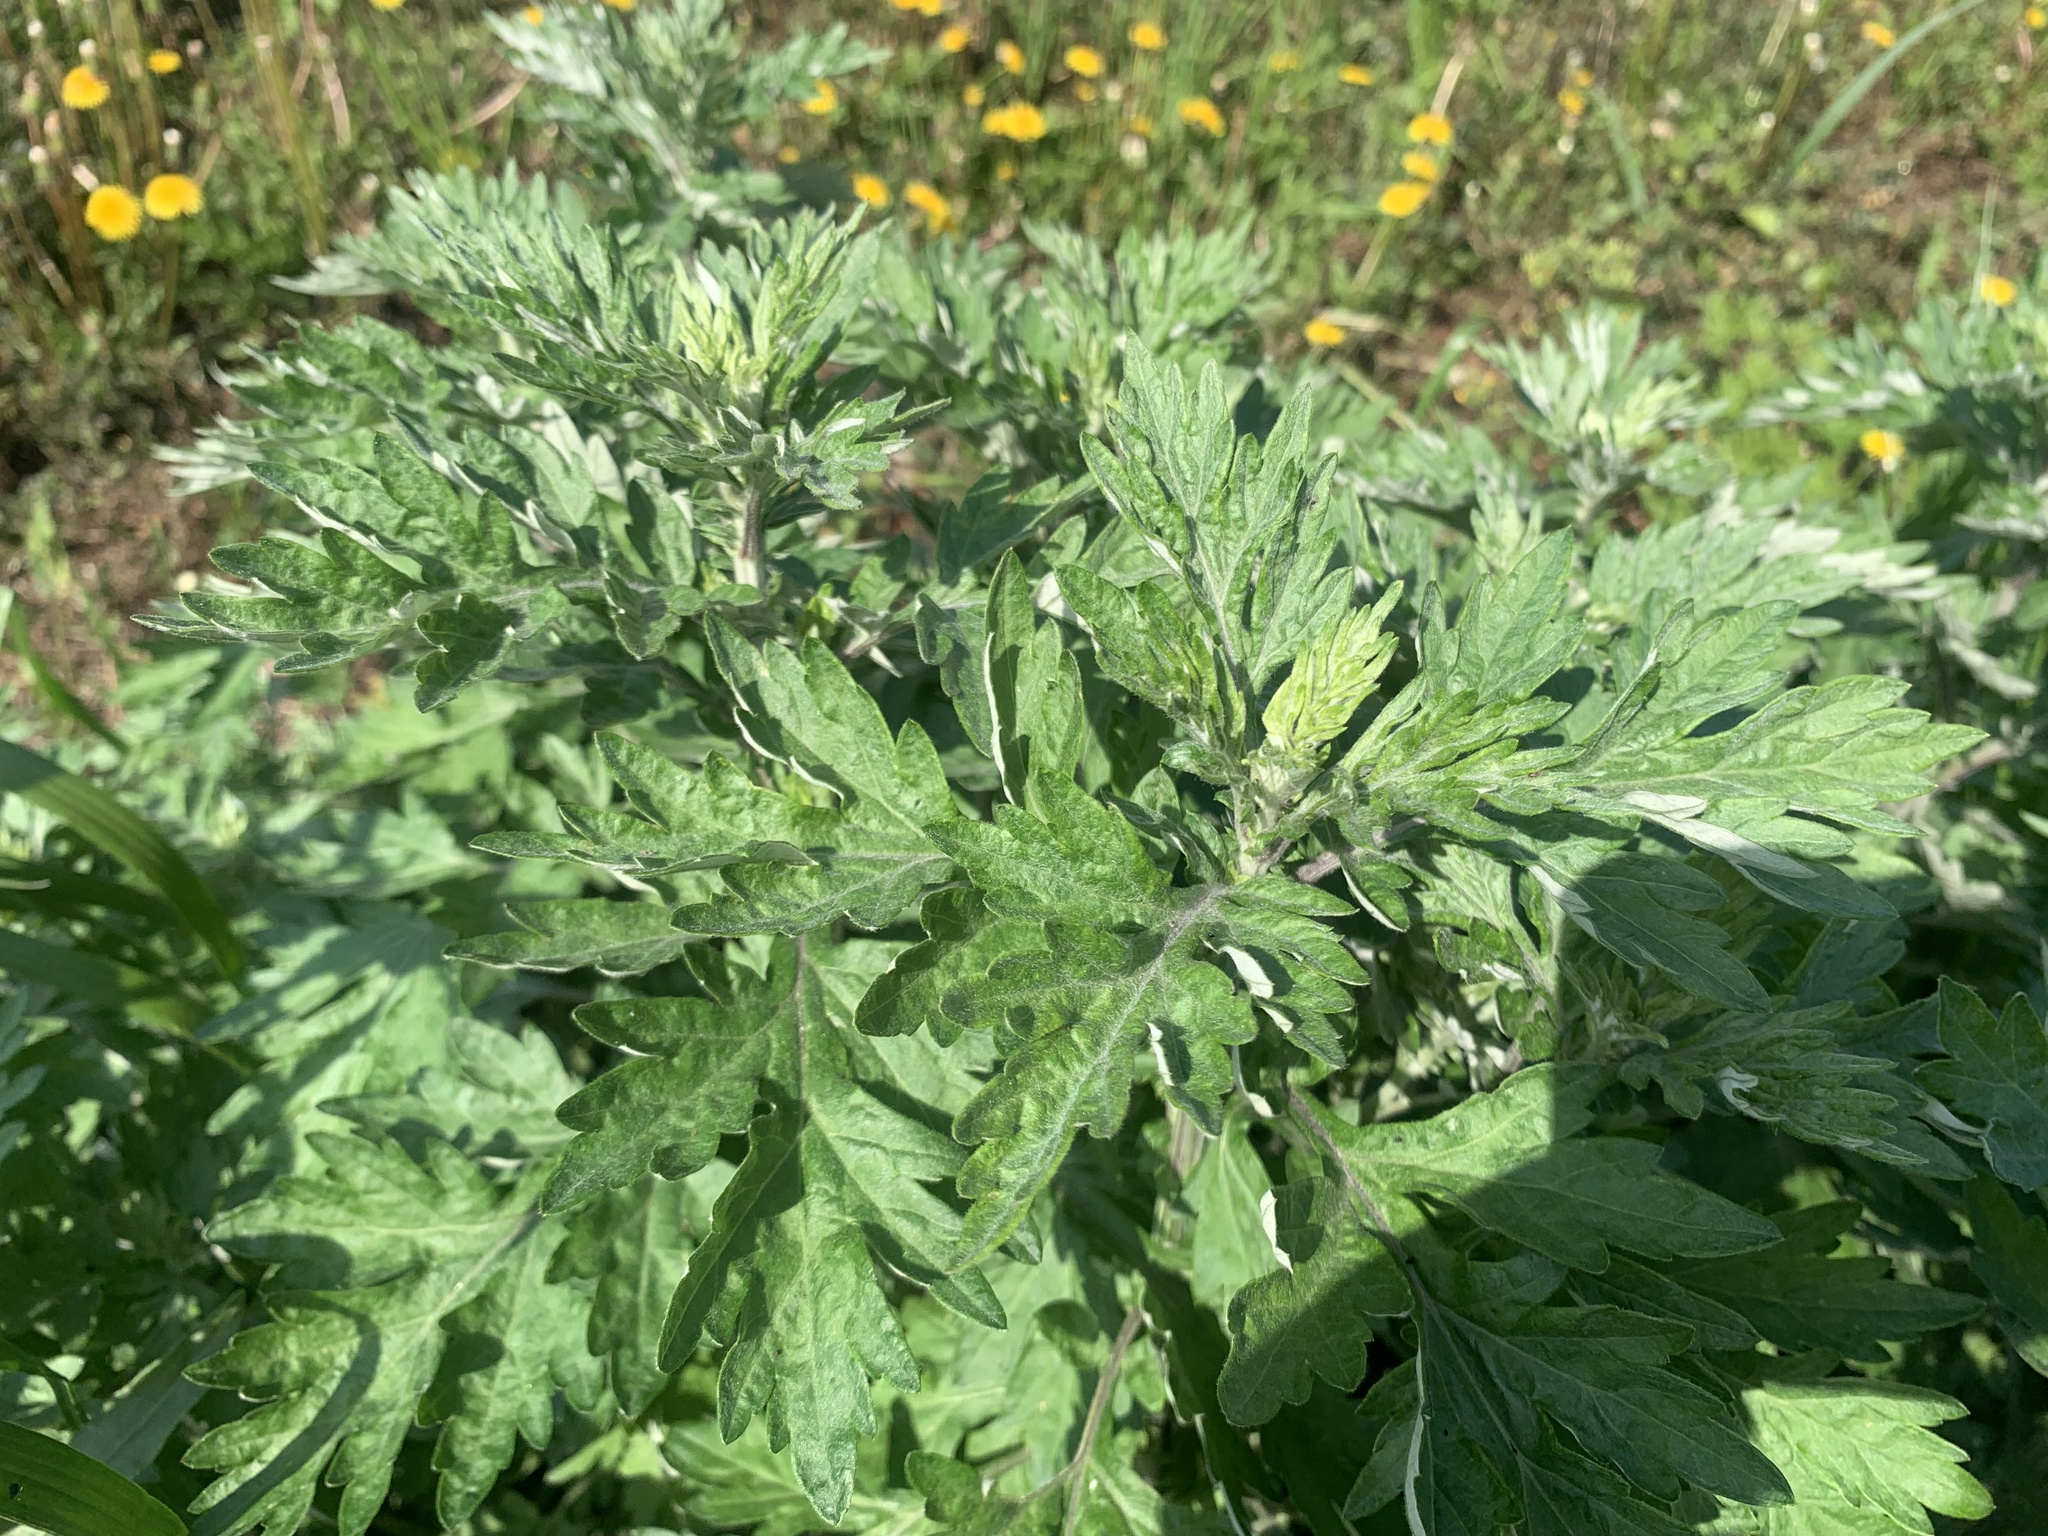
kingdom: Plantae
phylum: Tracheophyta
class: Magnoliopsida
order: Asterales
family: Asteraceae
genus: Artemisia
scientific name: Artemisia princeps
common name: Japanese mugwort
